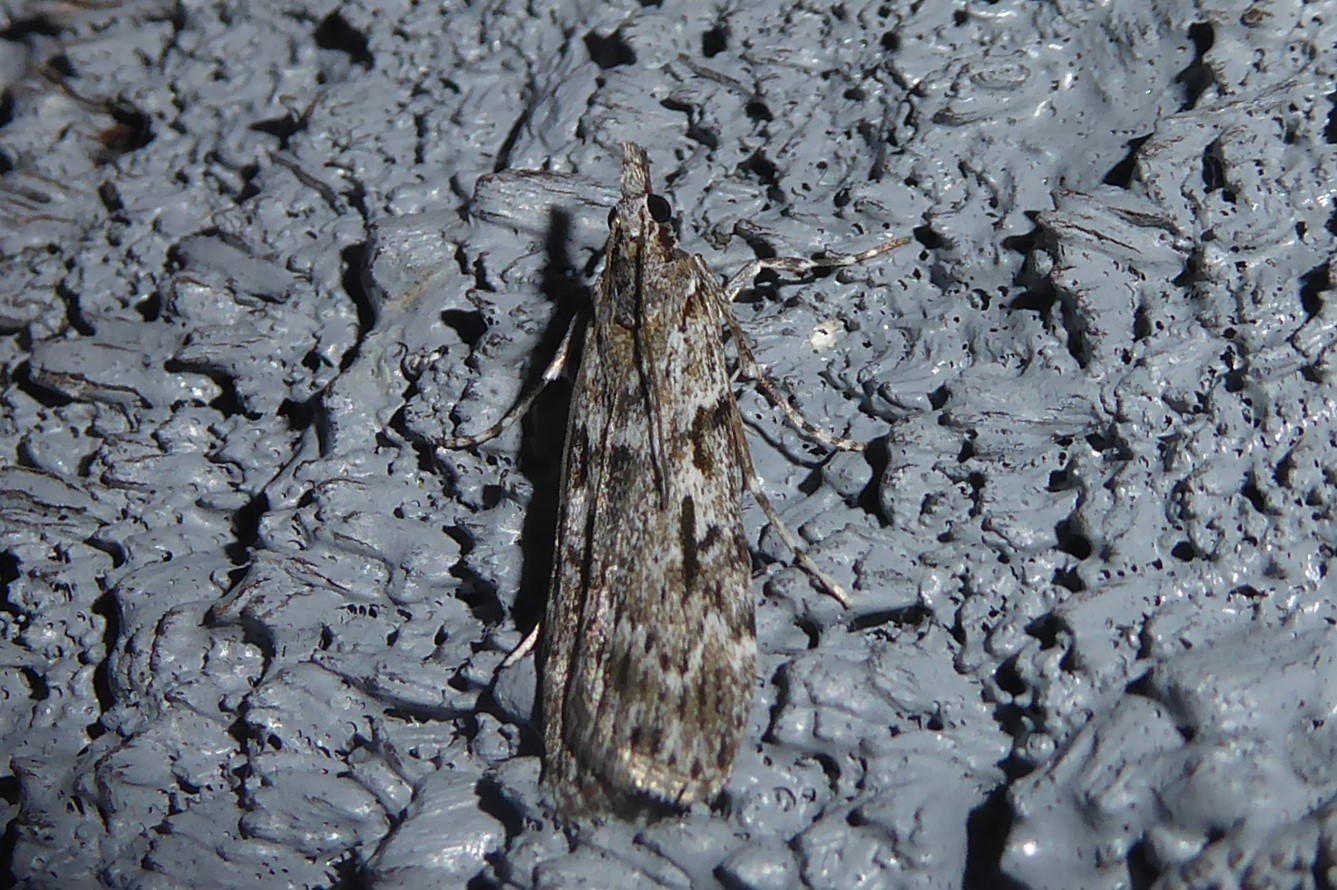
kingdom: Animalia
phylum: Arthropoda
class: Insecta
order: Lepidoptera
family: Crambidae
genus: Scoparia
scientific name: Scoparia halopis
